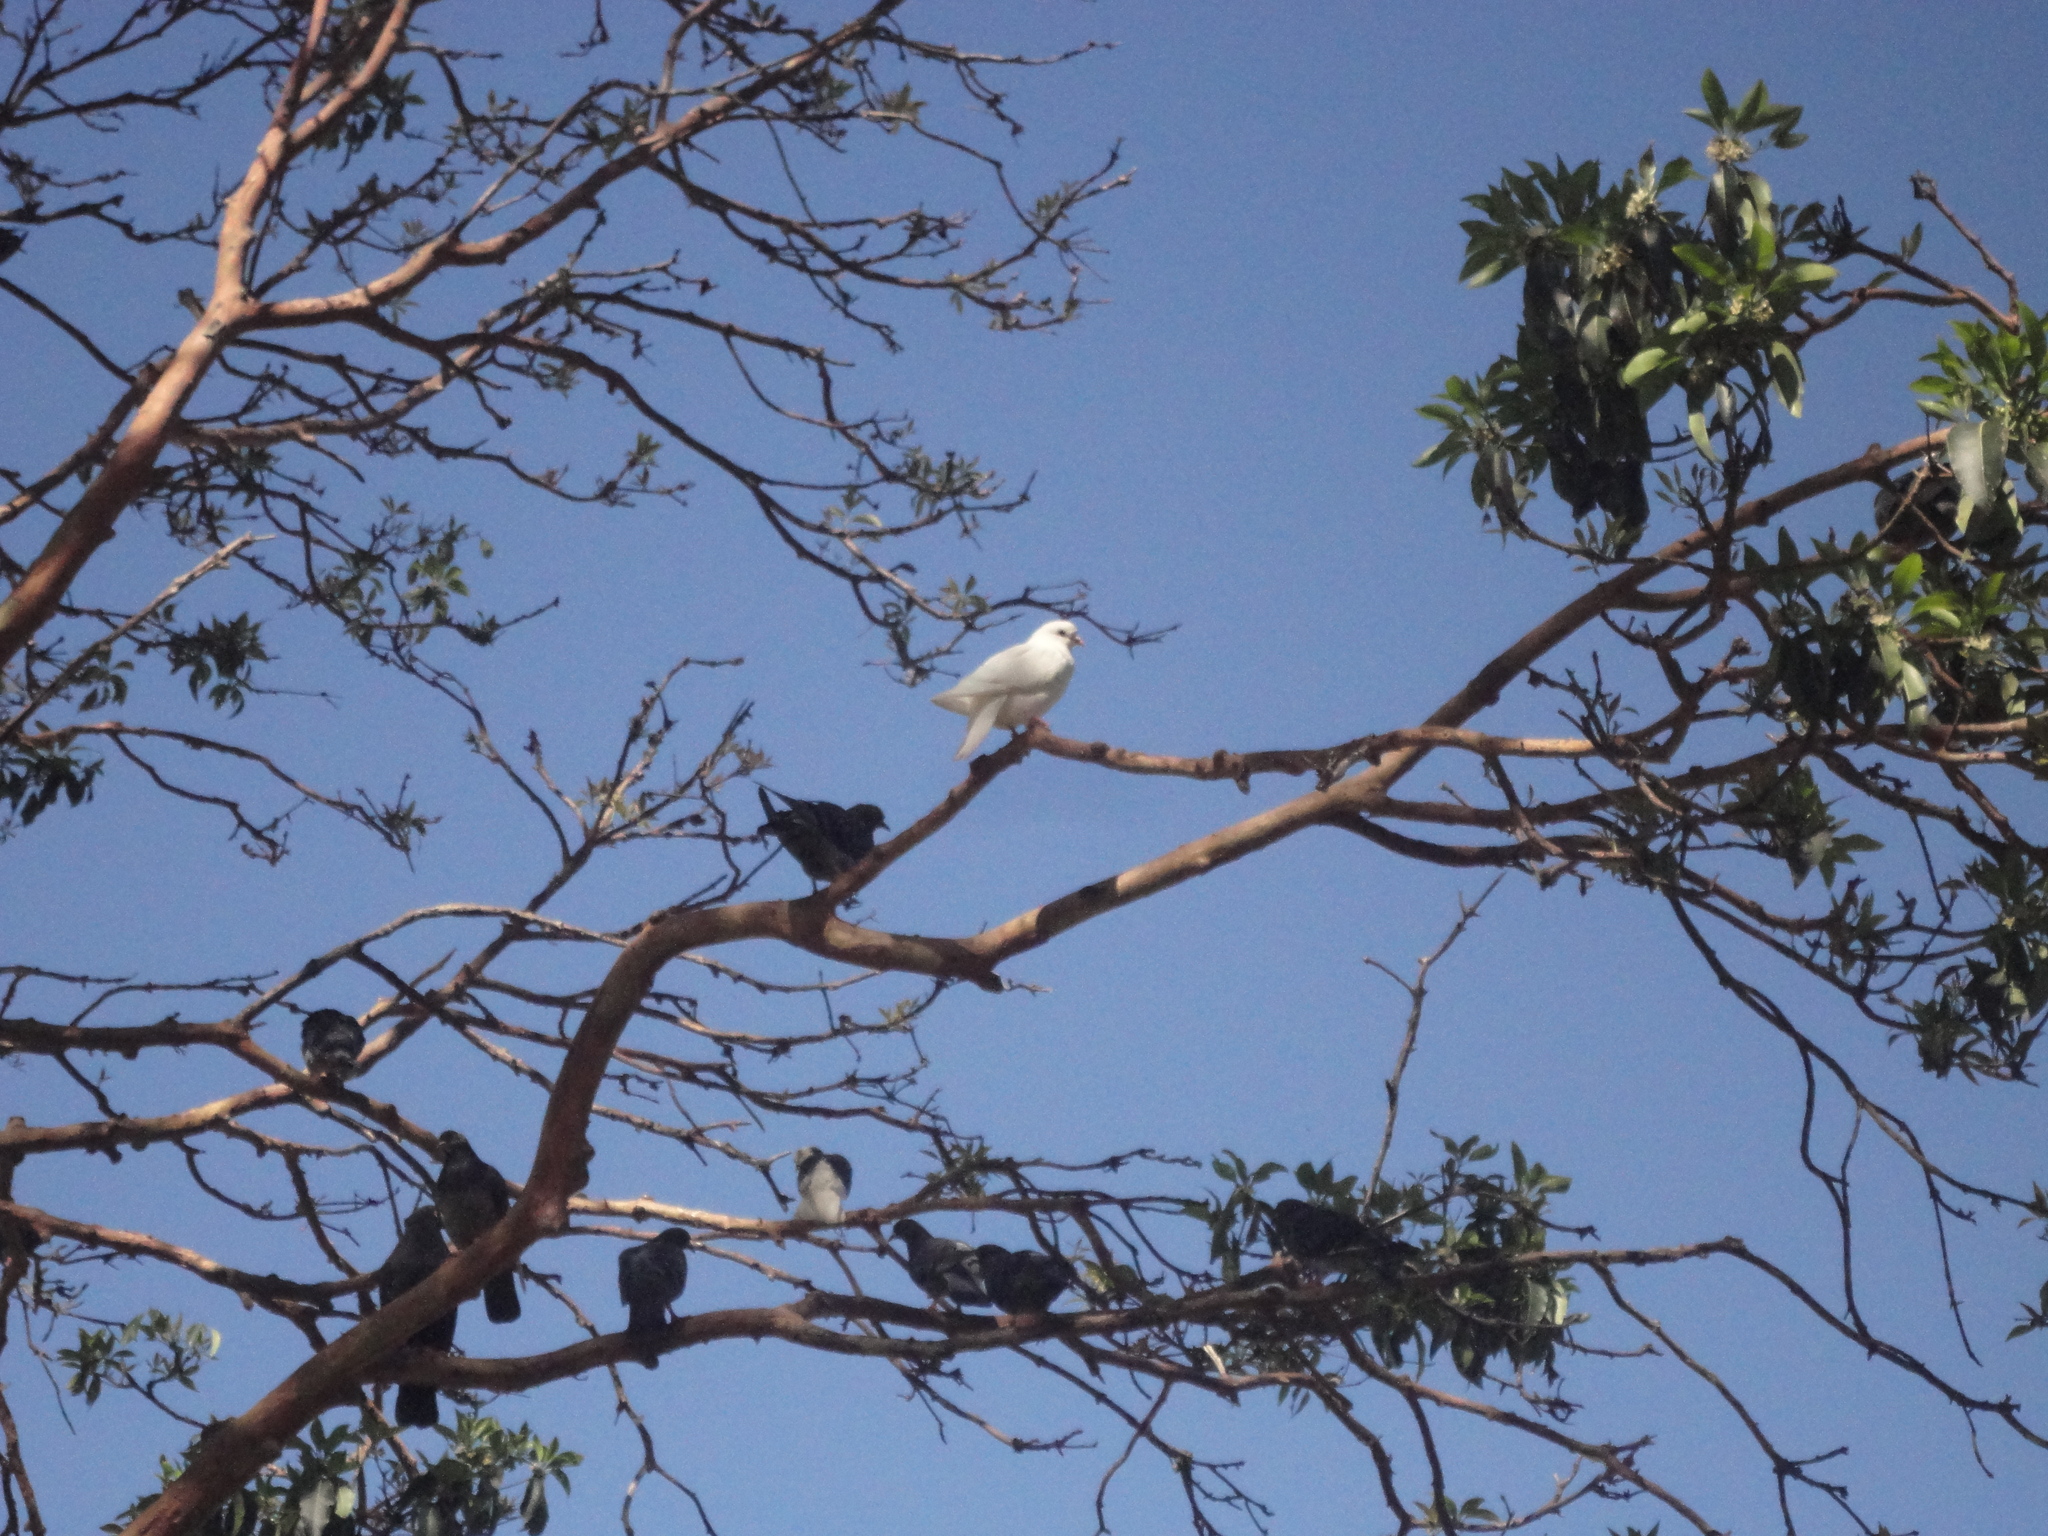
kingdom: Animalia
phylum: Chordata
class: Aves
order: Columbiformes
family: Columbidae
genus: Columba
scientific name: Columba livia
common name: Rock pigeon
